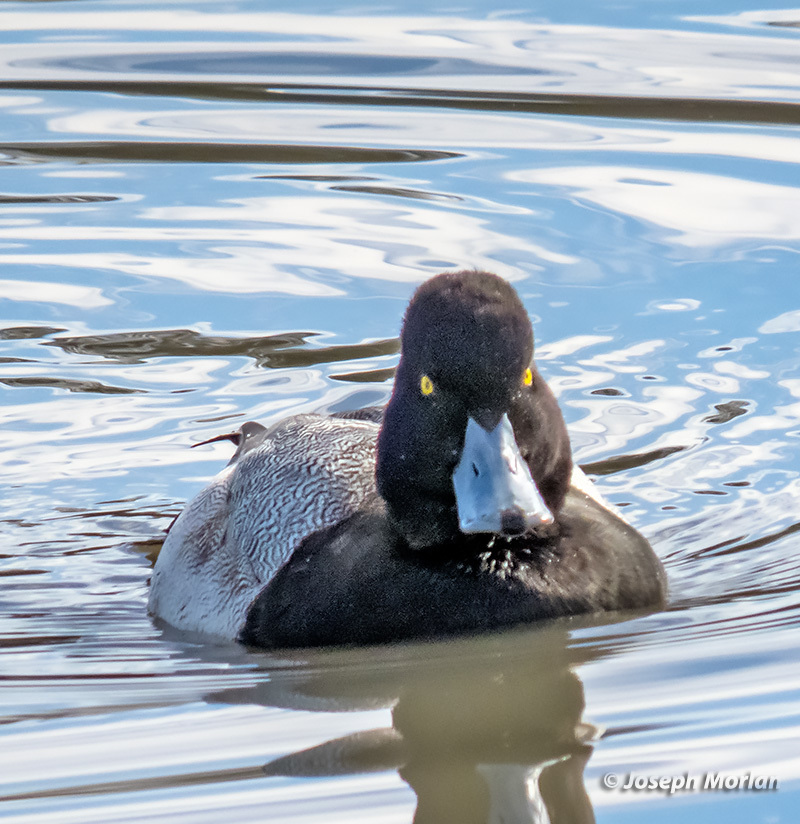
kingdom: Animalia
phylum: Chordata
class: Aves
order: Anseriformes
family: Anatidae
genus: Aythya
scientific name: Aythya affinis
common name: Lesser scaup
